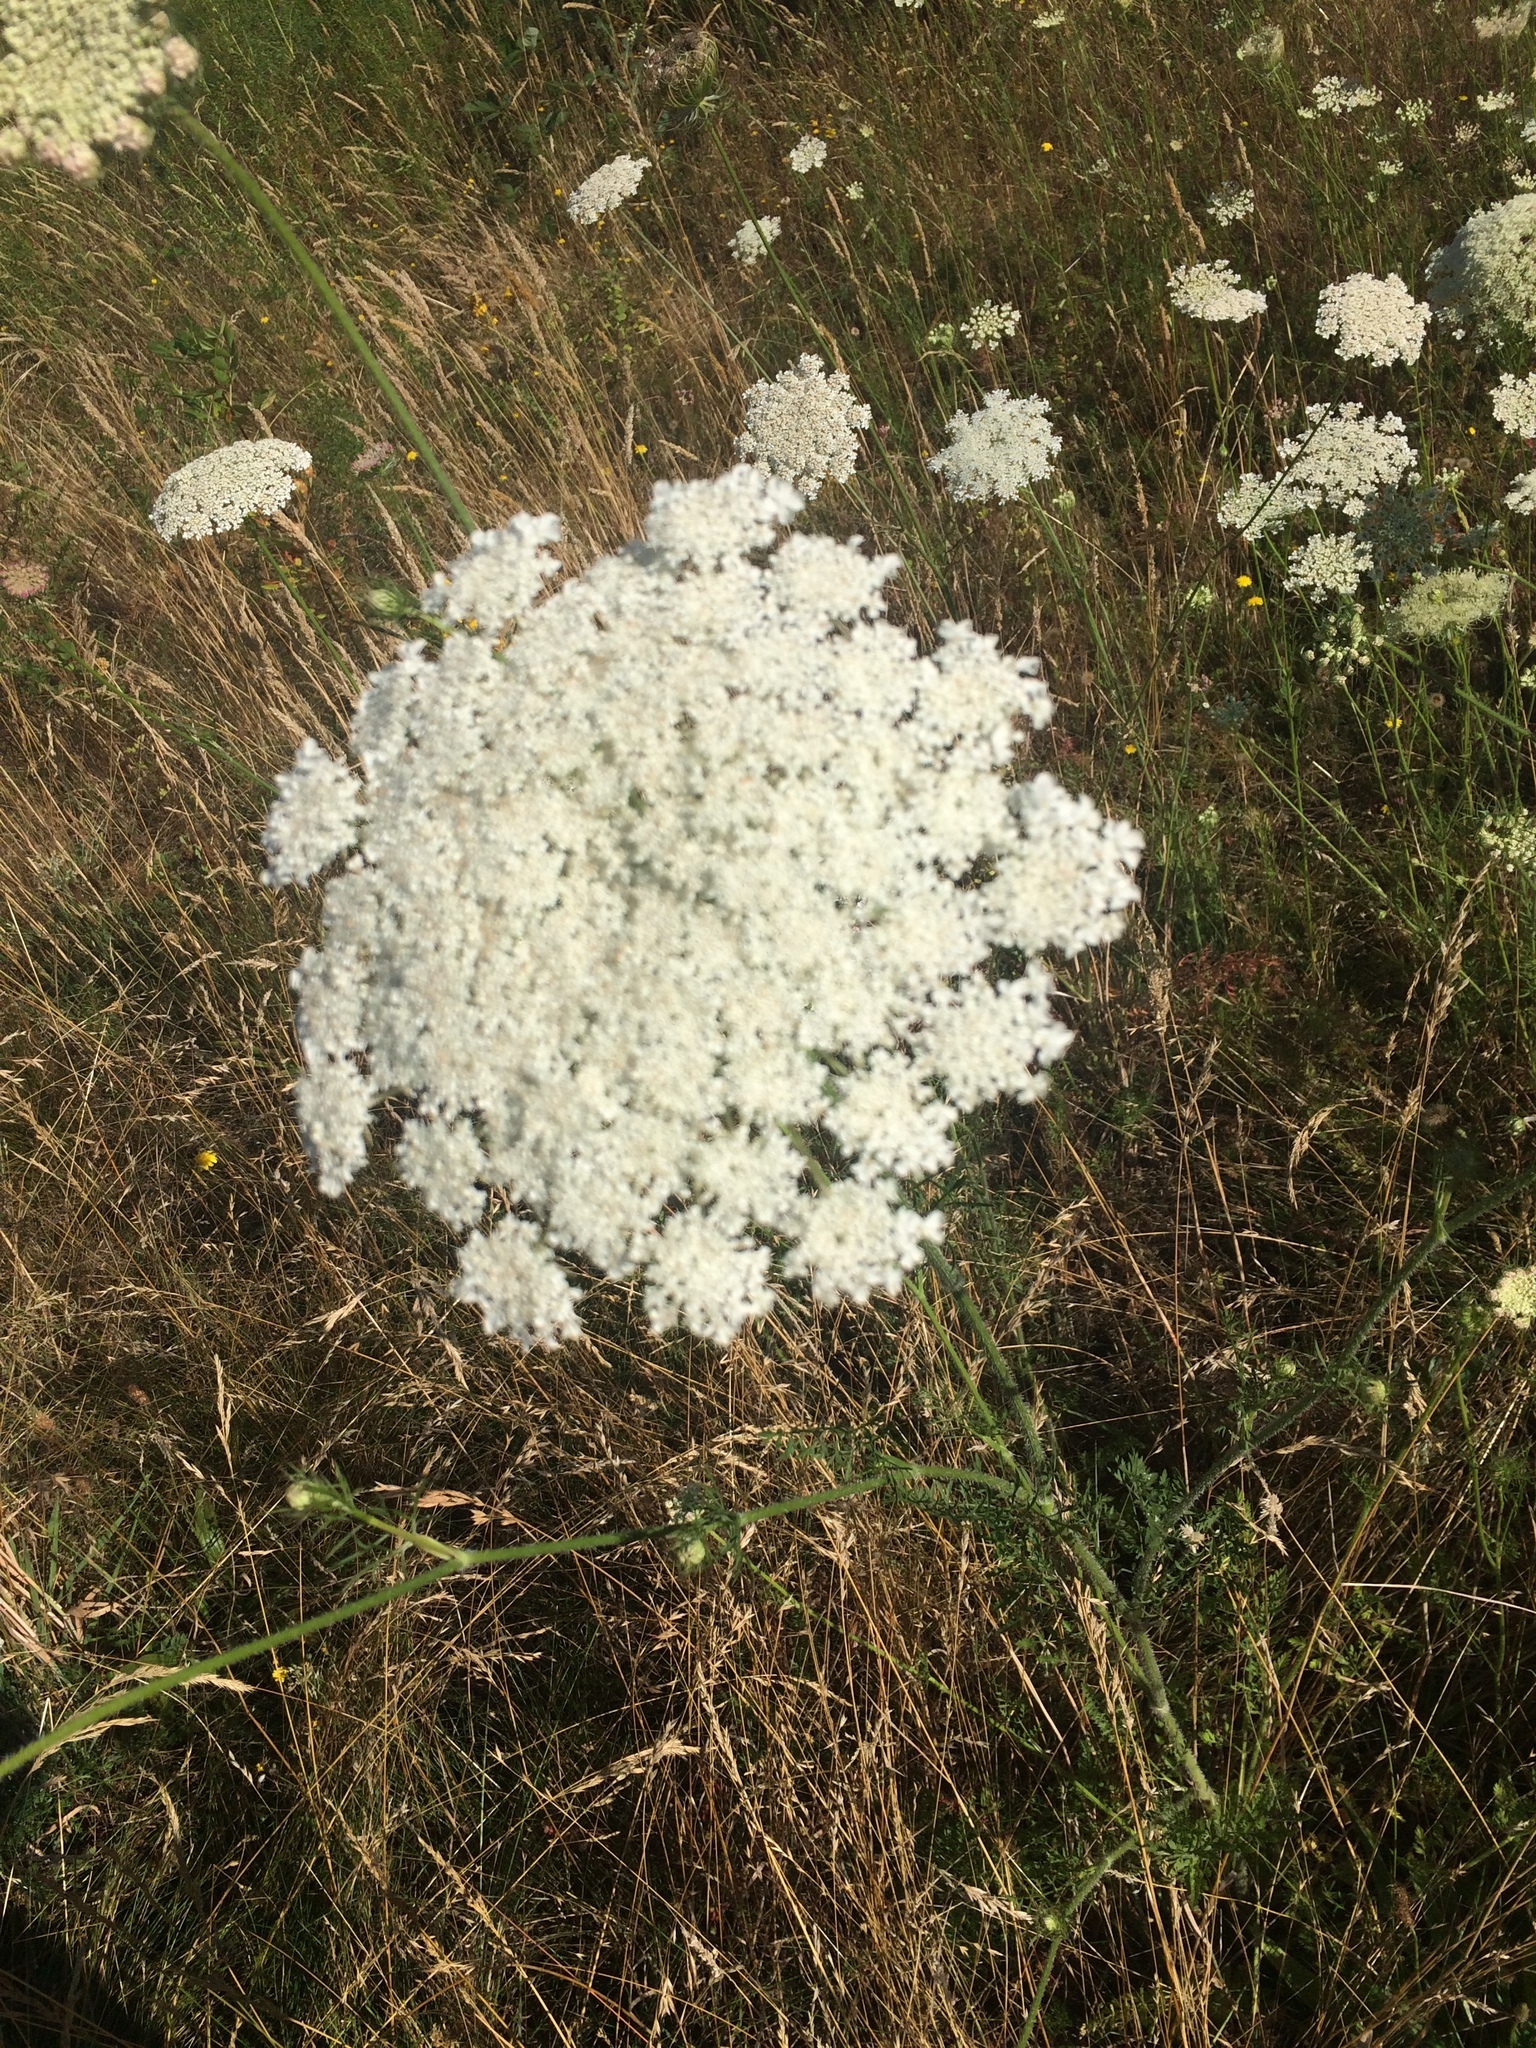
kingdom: Plantae
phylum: Tracheophyta
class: Magnoliopsida
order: Apiales
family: Apiaceae
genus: Daucus
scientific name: Daucus carota
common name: Wild carrot
